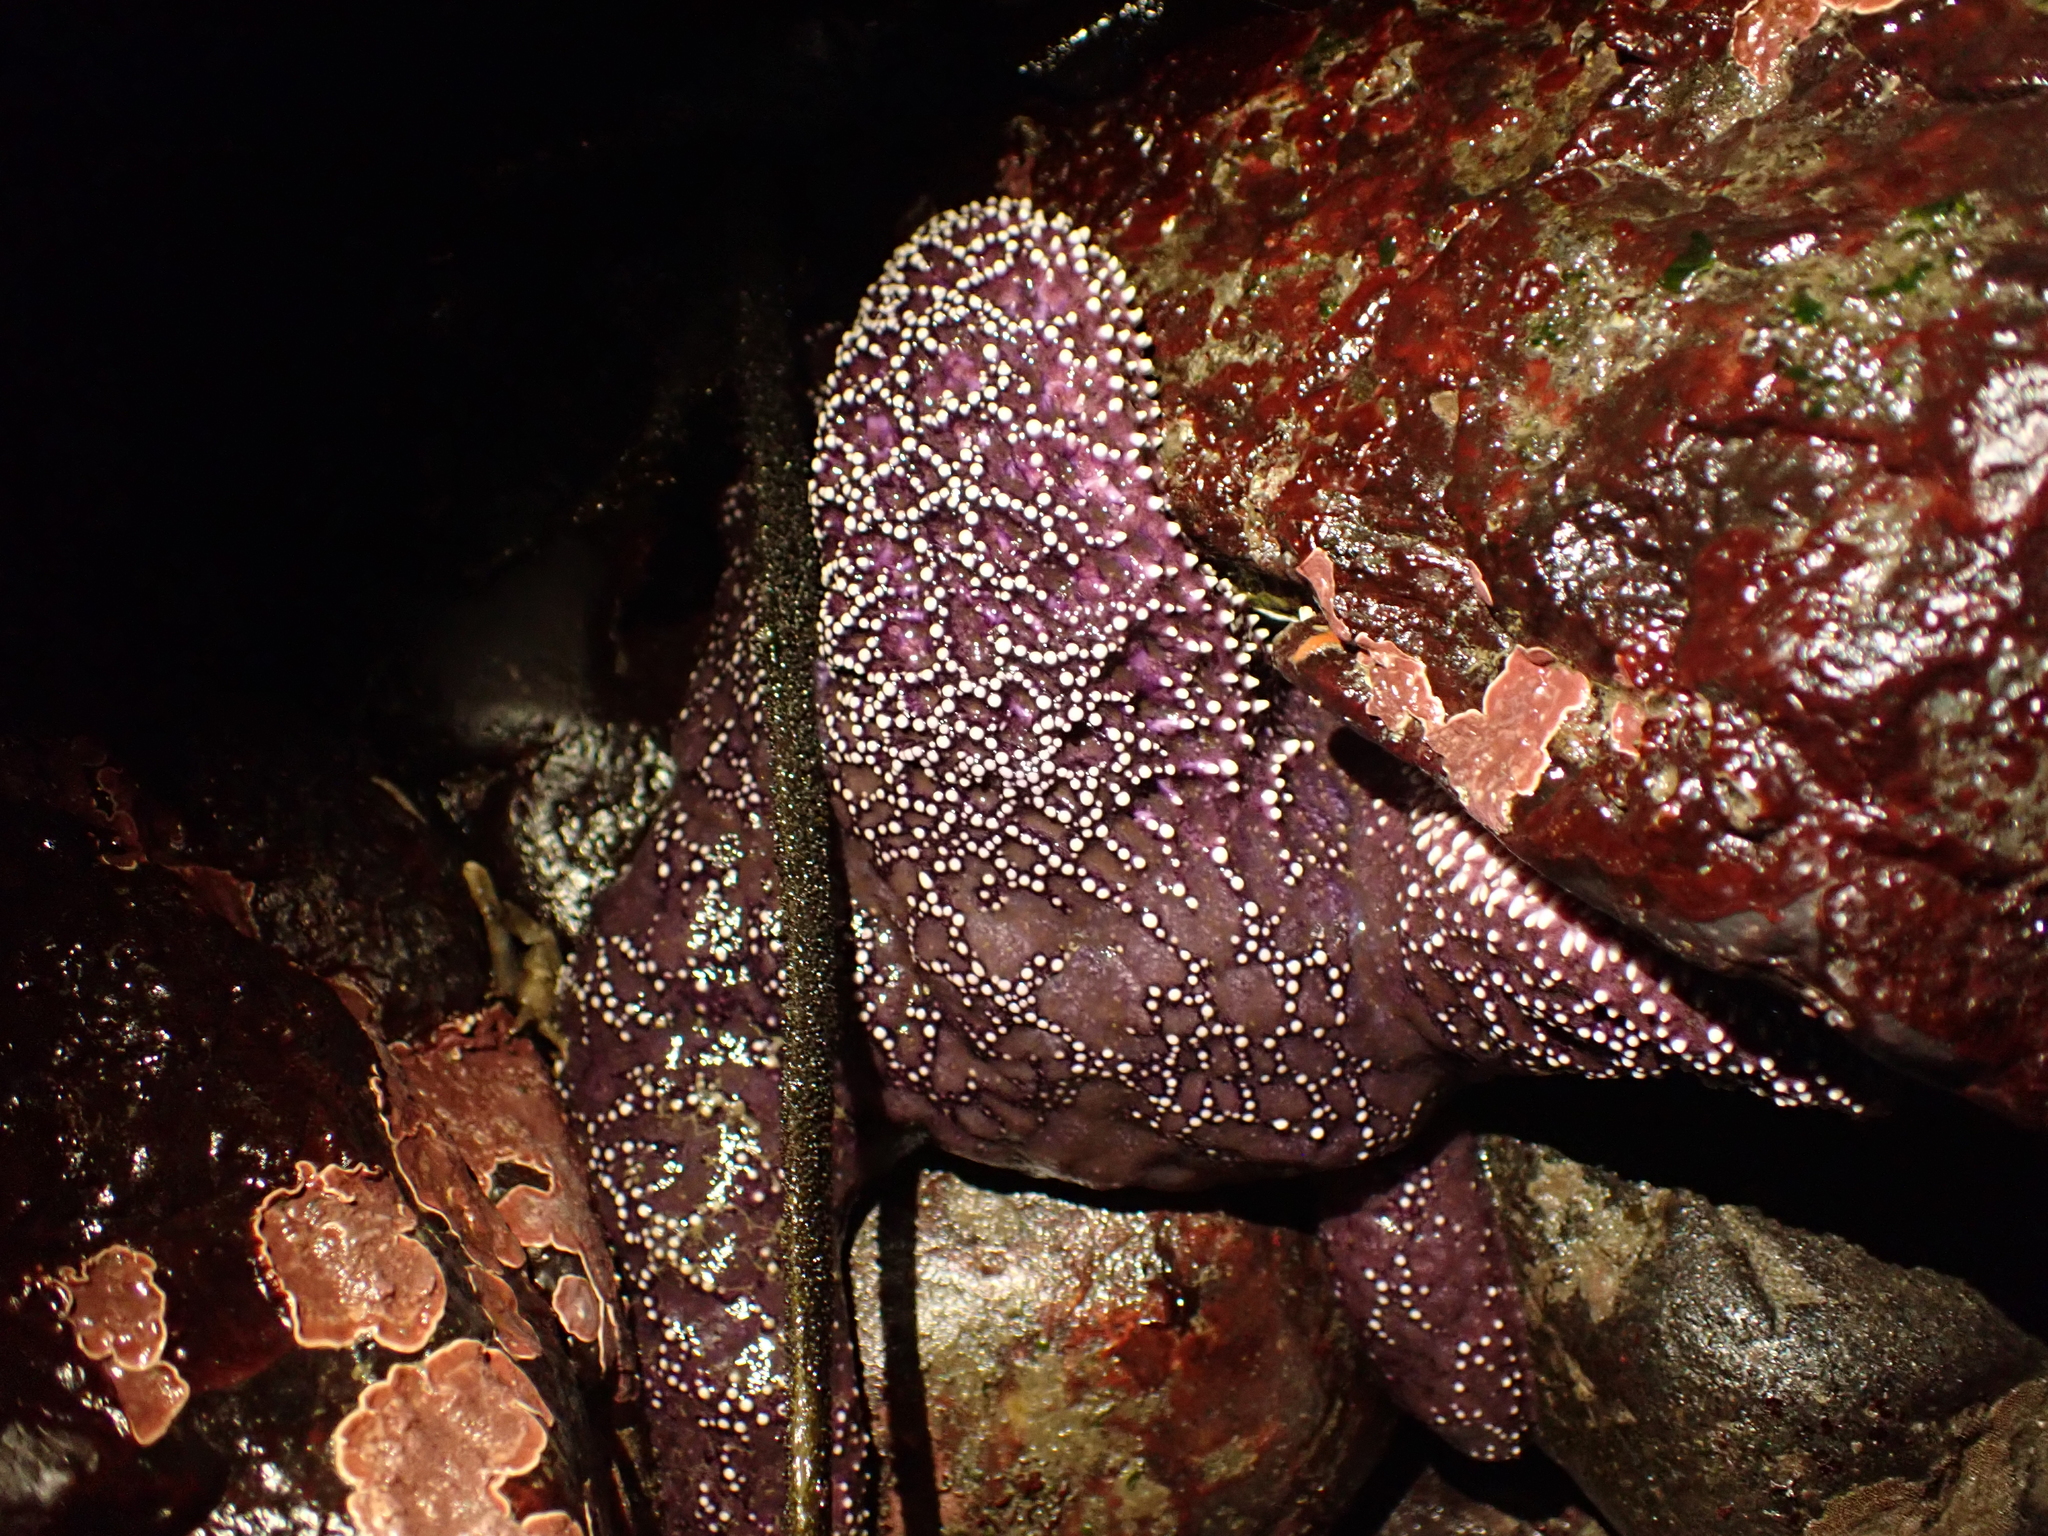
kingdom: Animalia
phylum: Echinodermata
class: Asteroidea
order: Forcipulatida
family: Asteriidae
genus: Pisaster
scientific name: Pisaster ochraceus
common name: Ochre stars
